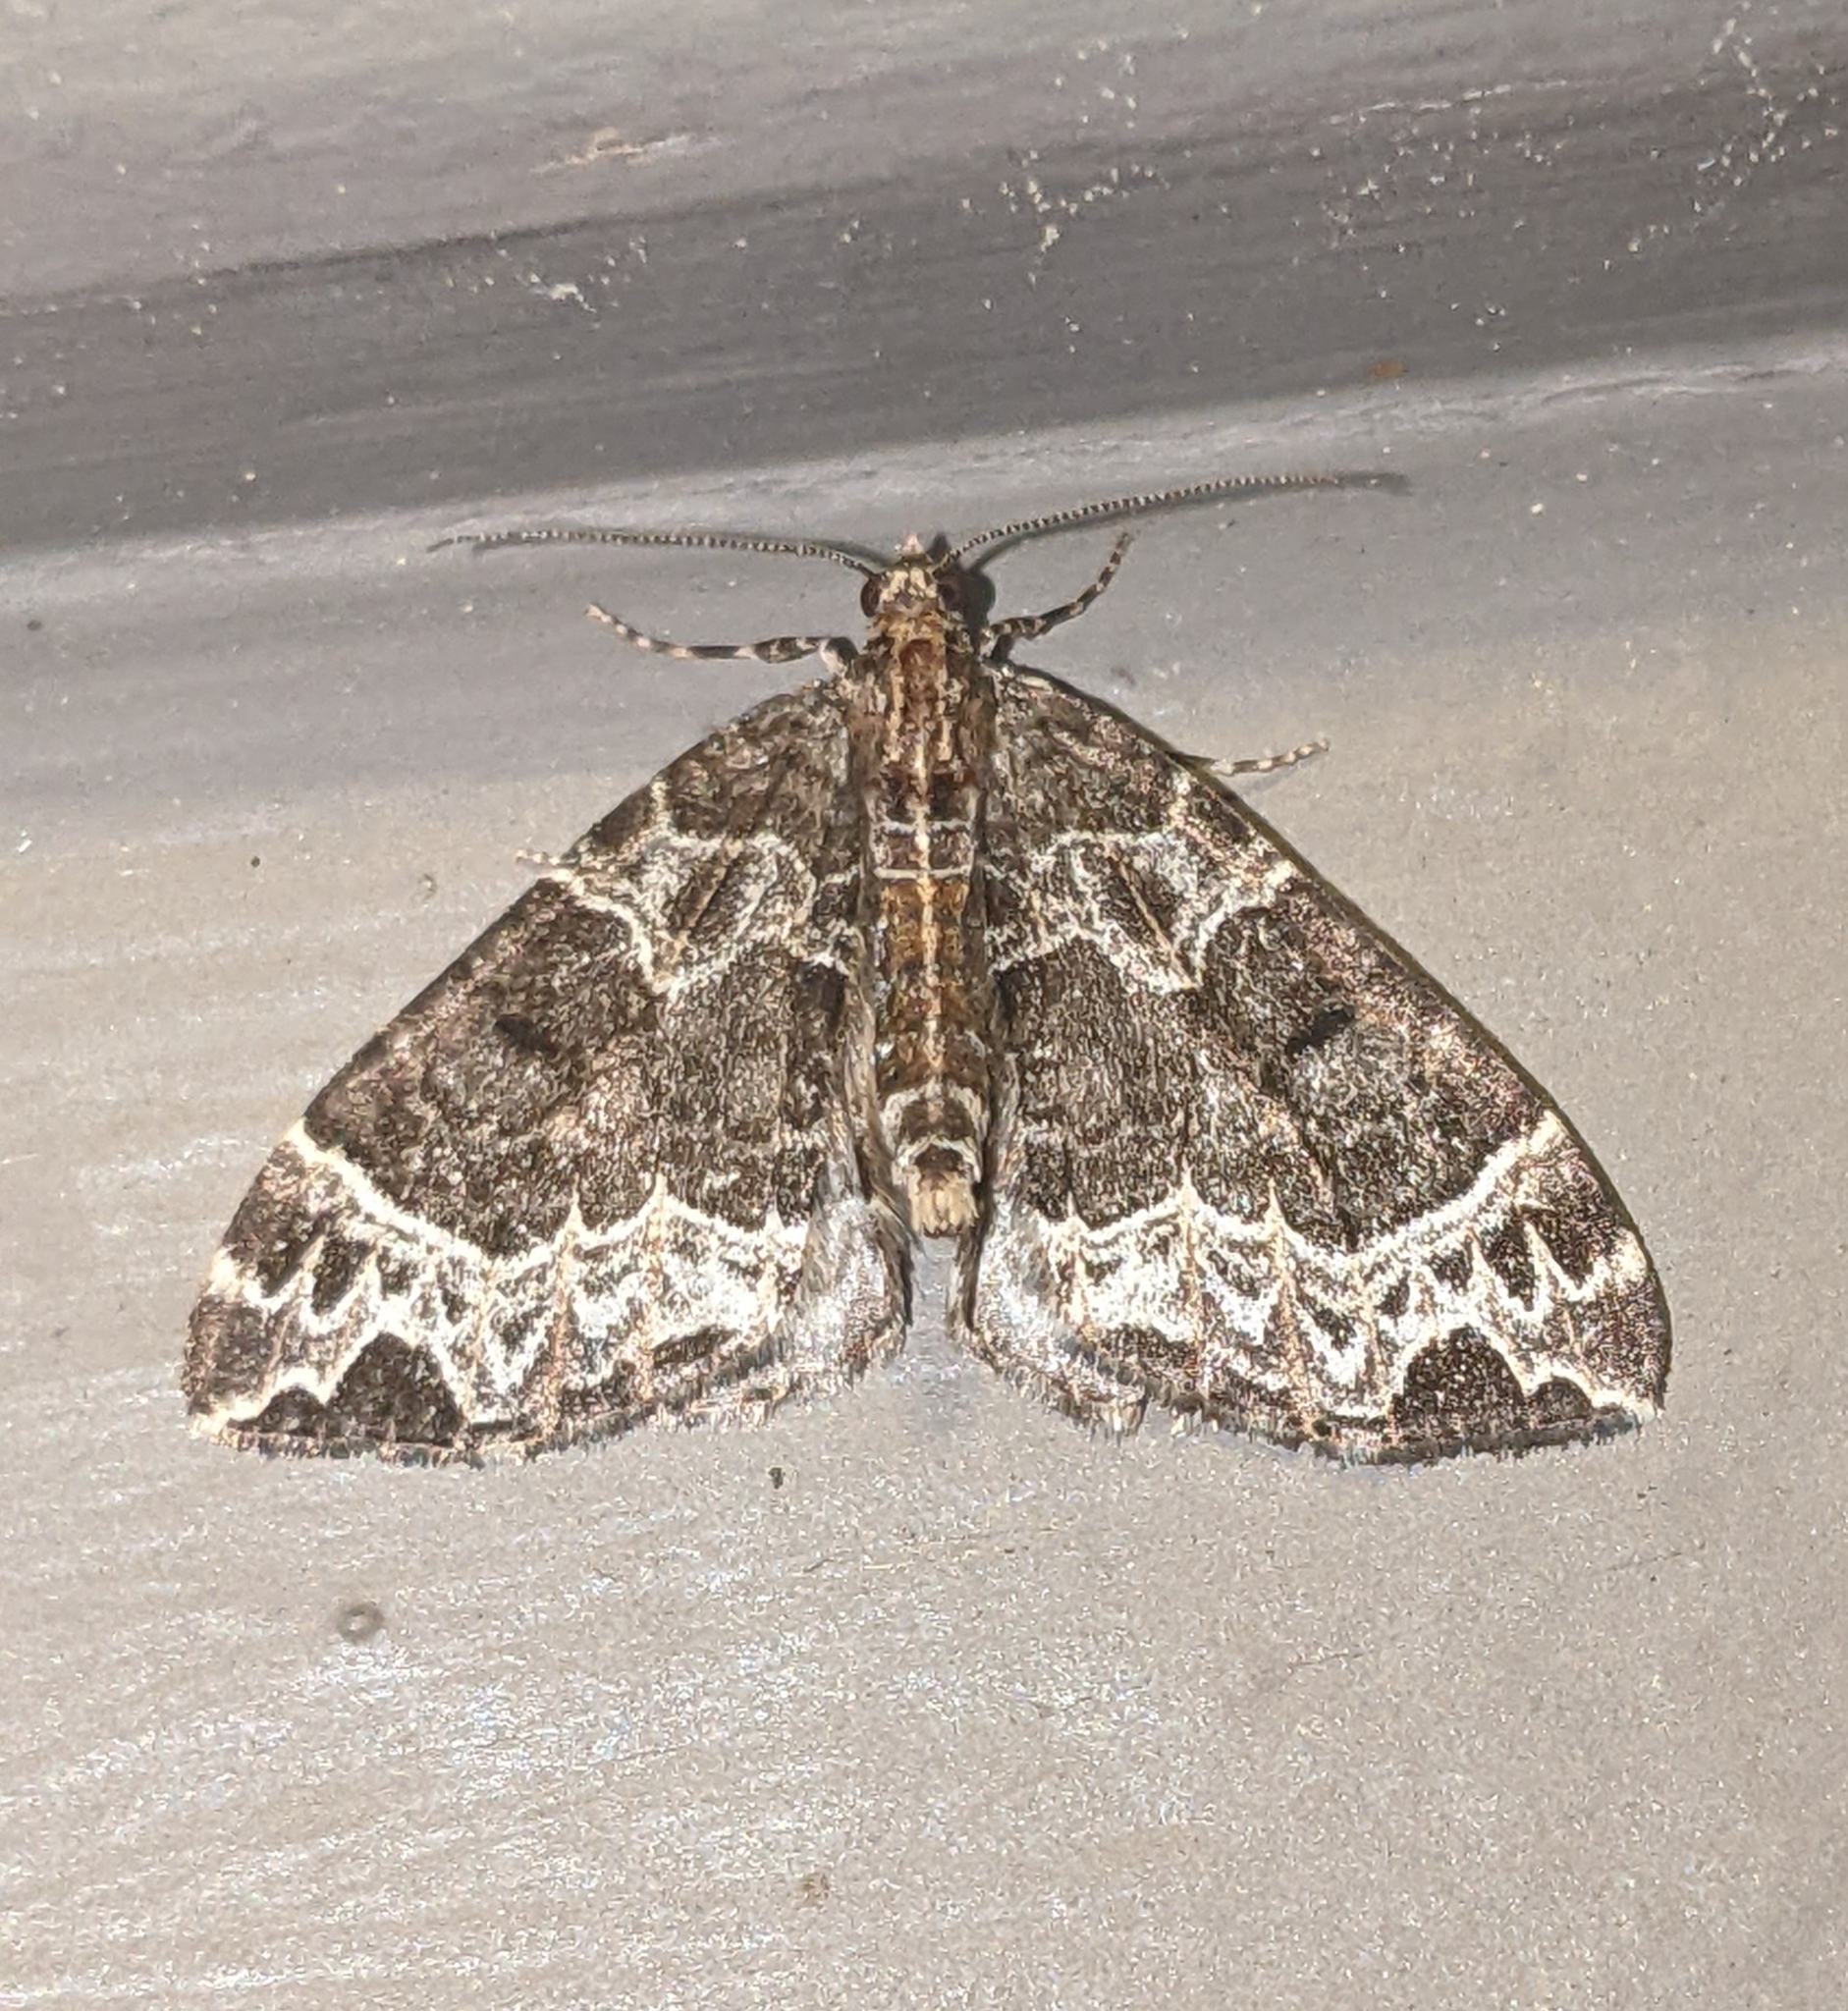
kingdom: Animalia
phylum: Arthropoda
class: Insecta
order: Lepidoptera
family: Geometridae
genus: Ecliptopera
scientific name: Ecliptopera silaceata
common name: Small phoenix
